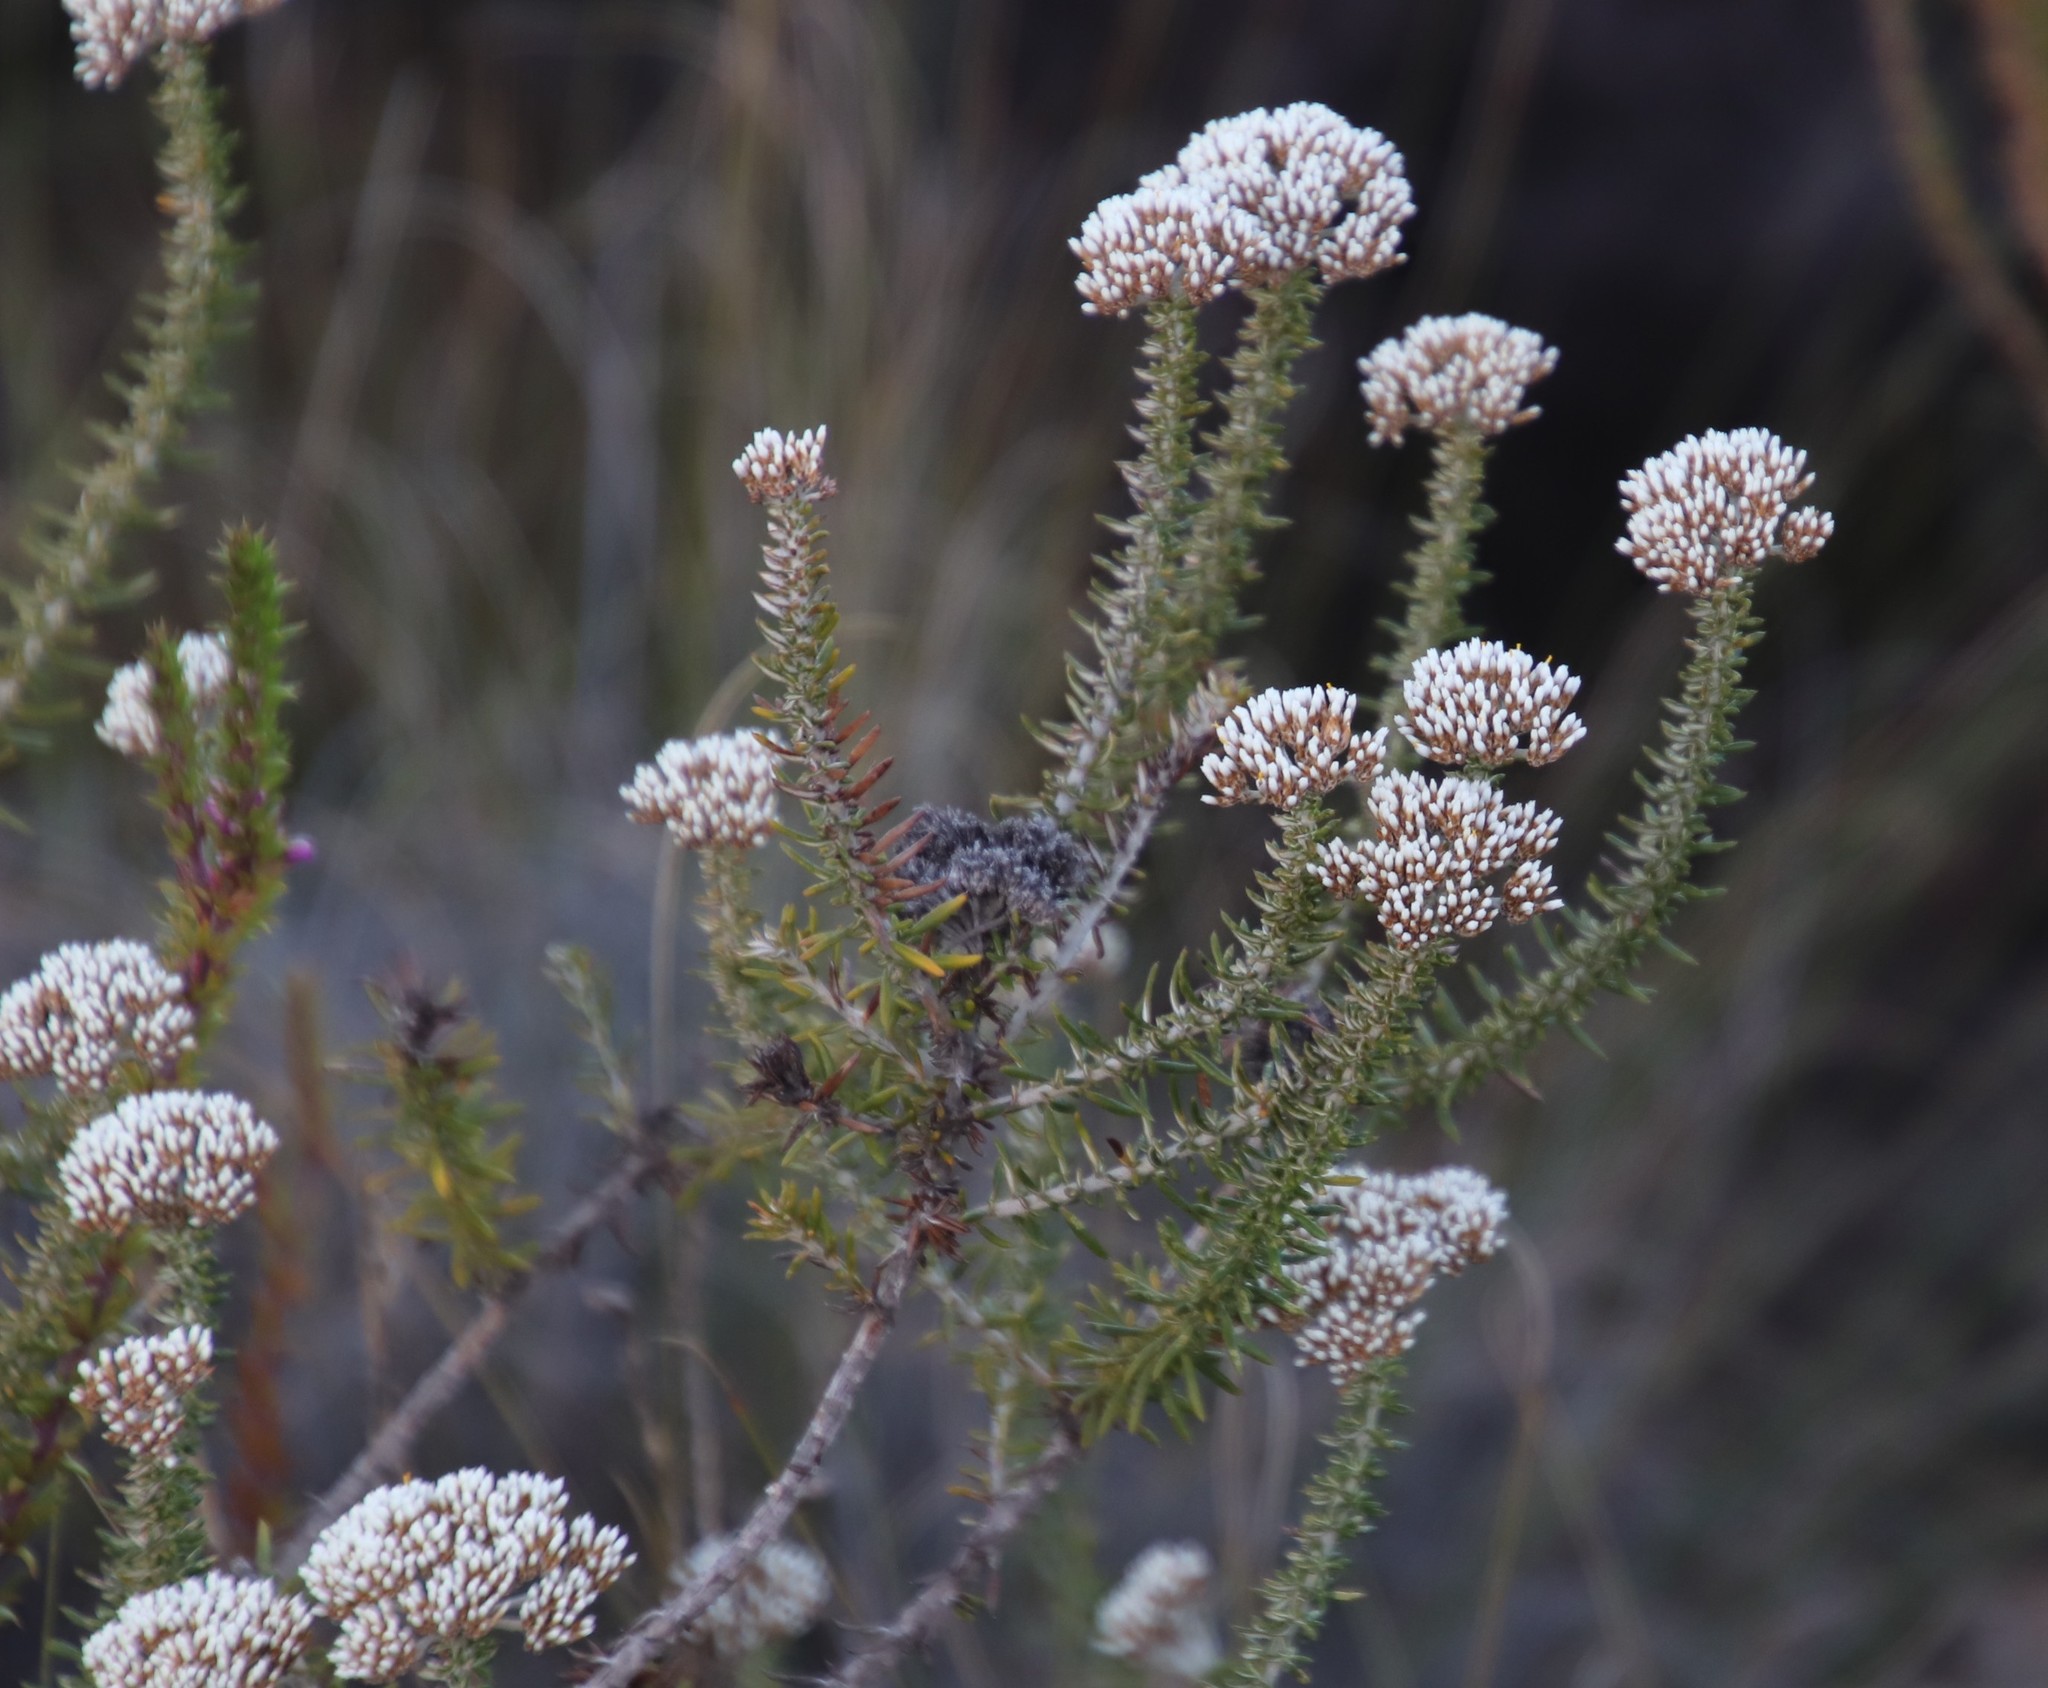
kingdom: Plantae
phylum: Tracheophyta
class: Magnoliopsida
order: Asterales
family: Asteraceae
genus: Metalasia
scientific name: Metalasia densa
